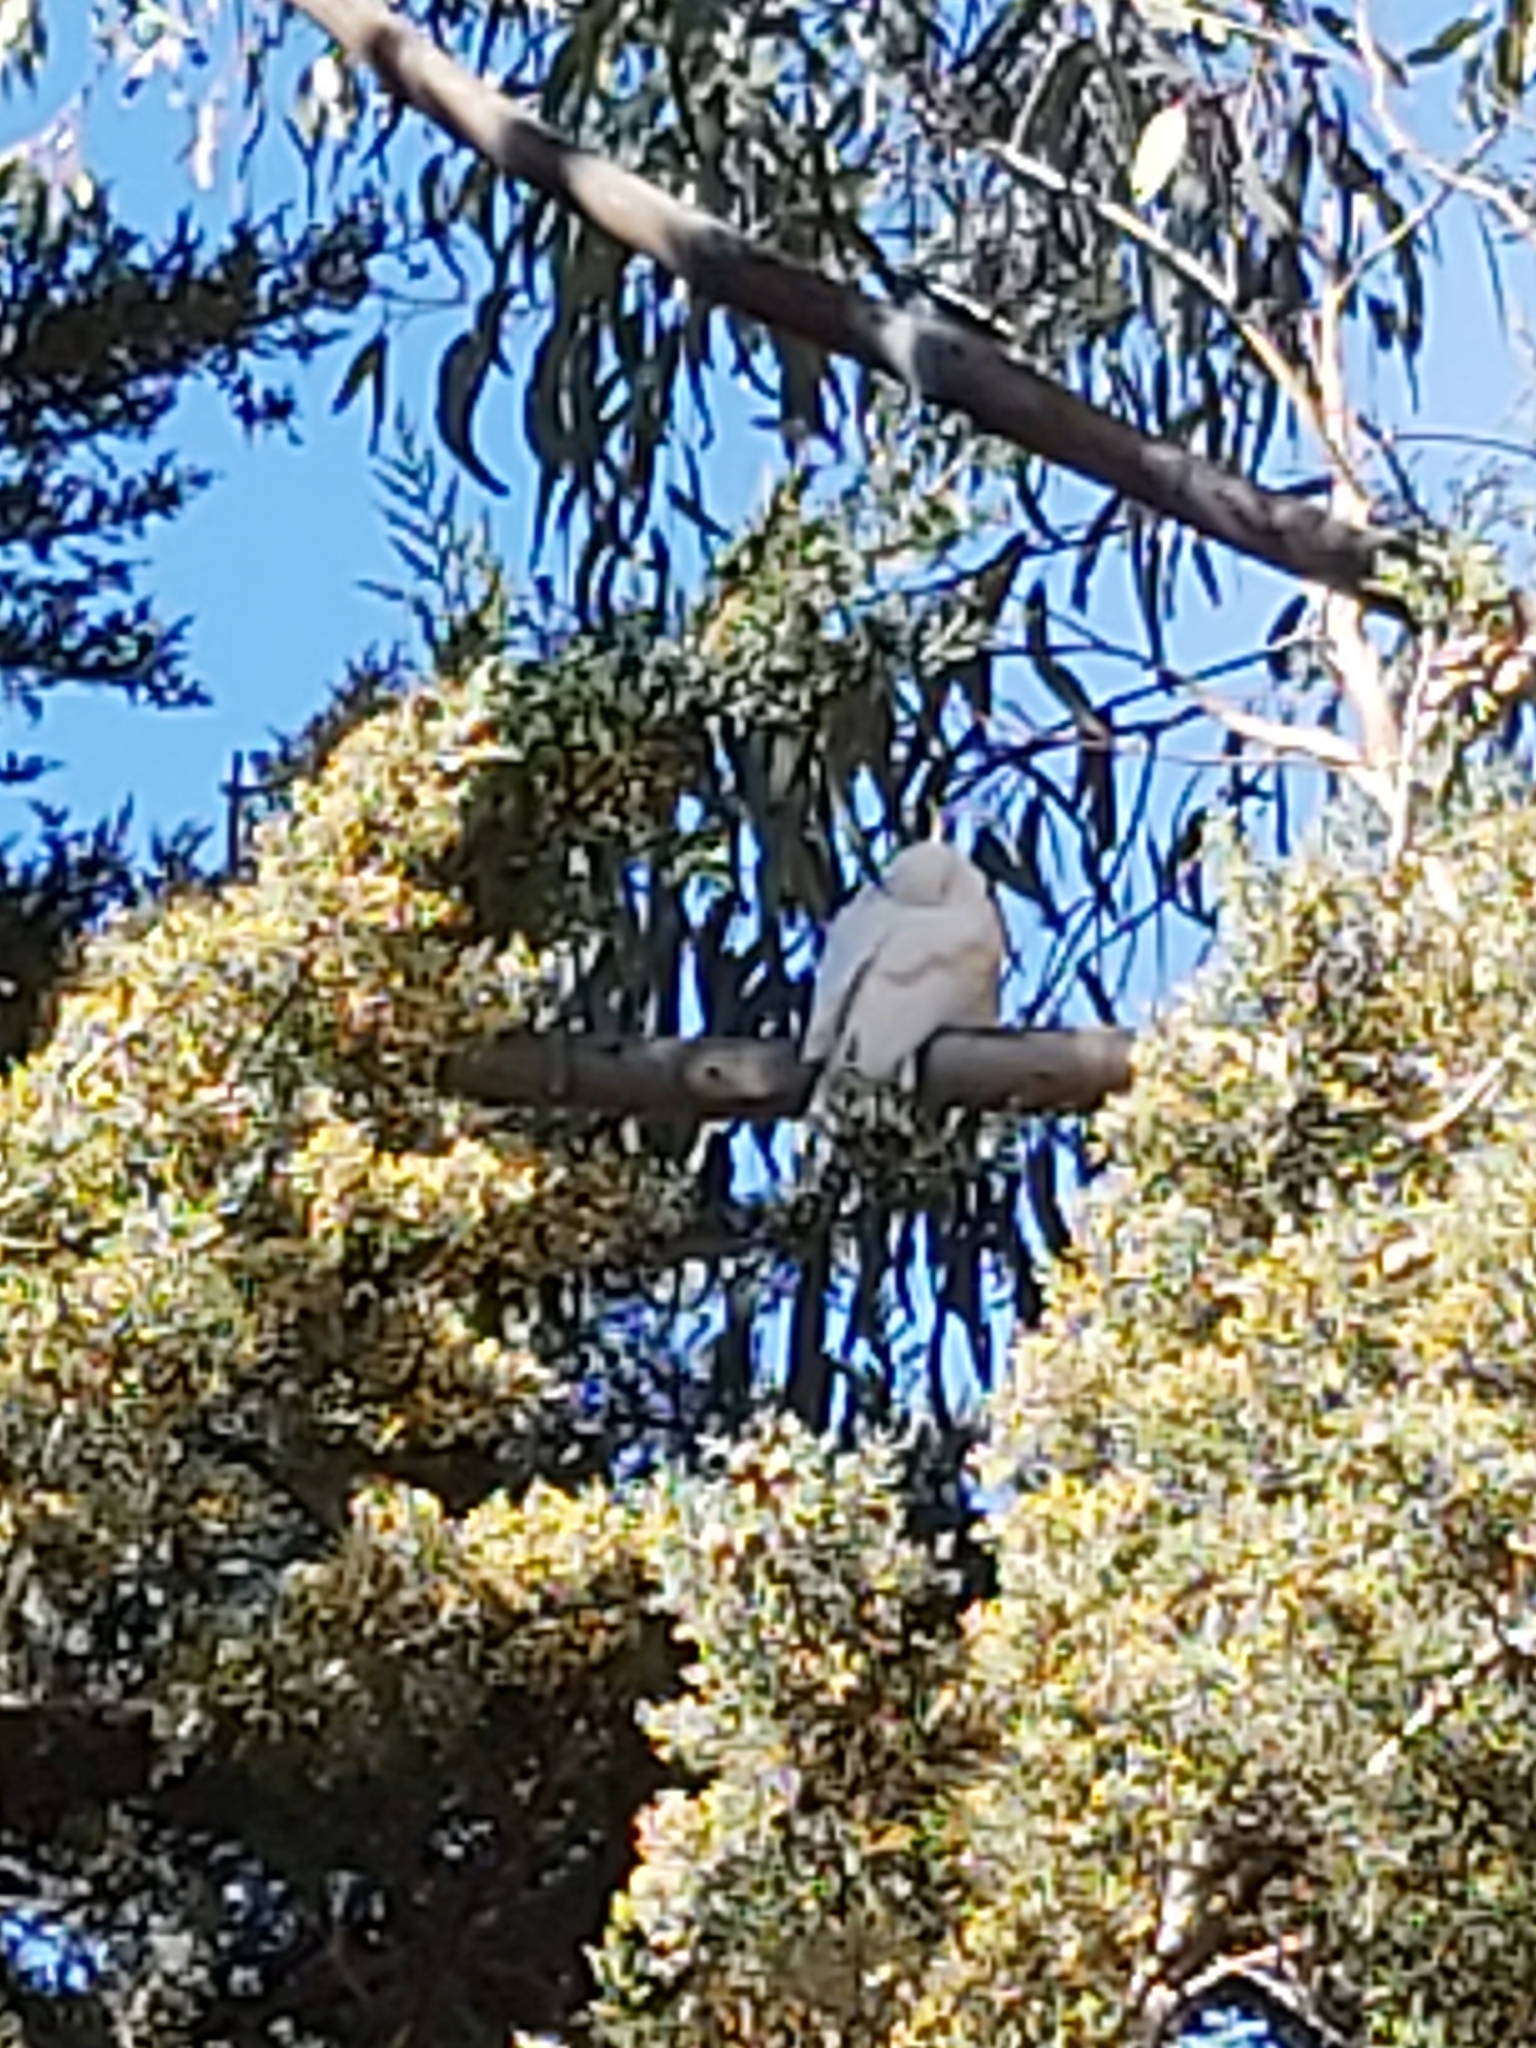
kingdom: Animalia
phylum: Chordata
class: Aves
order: Psittaciformes
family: Psittacidae
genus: Cacatua
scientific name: Cacatua galerita
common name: Sulphur-crested cockatoo
